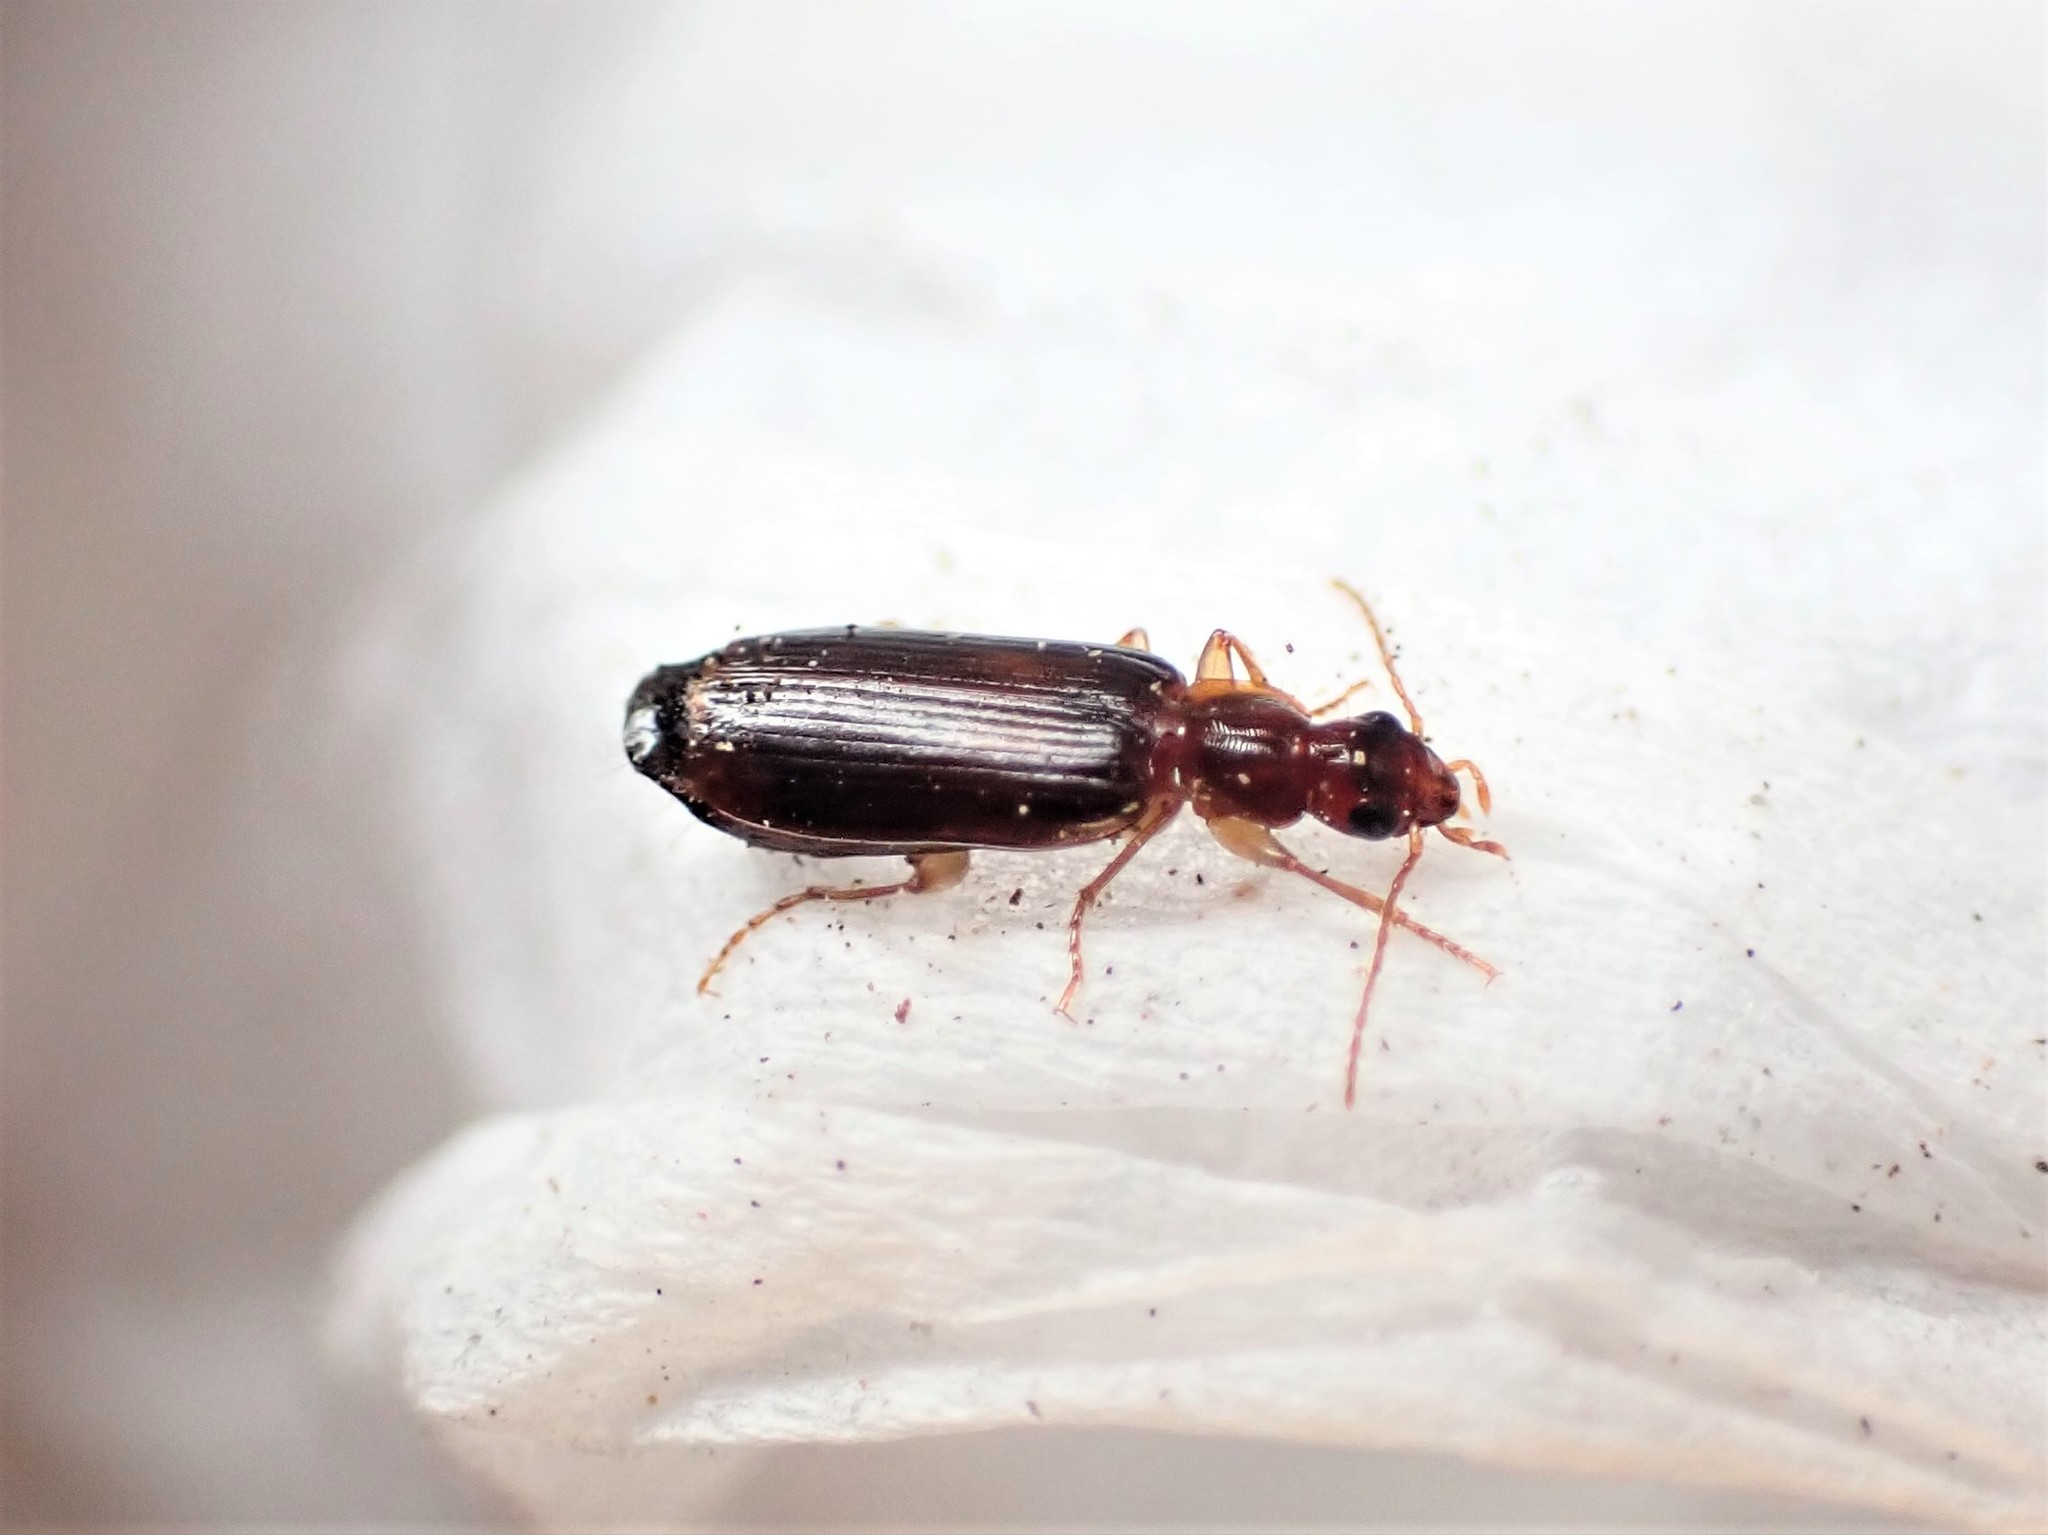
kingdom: Animalia
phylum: Arthropoda
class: Insecta
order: Coleoptera
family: Carabidae
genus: Dromius
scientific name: Dromius meridionalis
